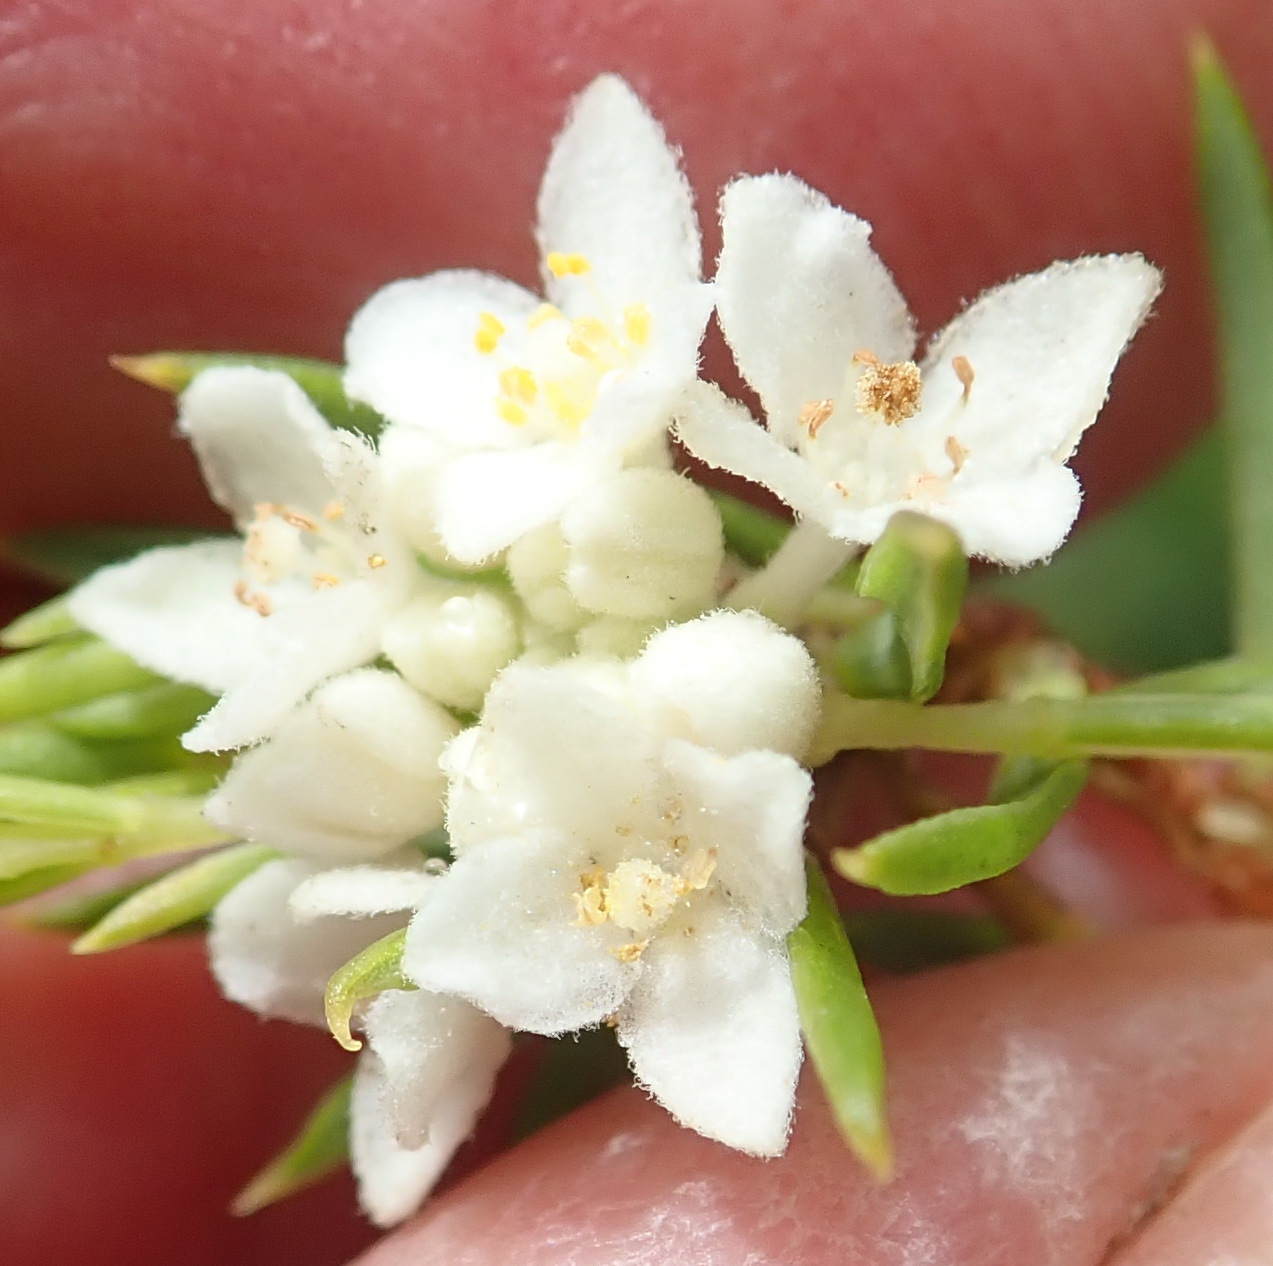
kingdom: Plantae
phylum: Tracheophyta
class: Magnoliopsida
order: Malvales
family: Thymelaeaceae
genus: Lachnaea
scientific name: Lachnaea diosmoides
